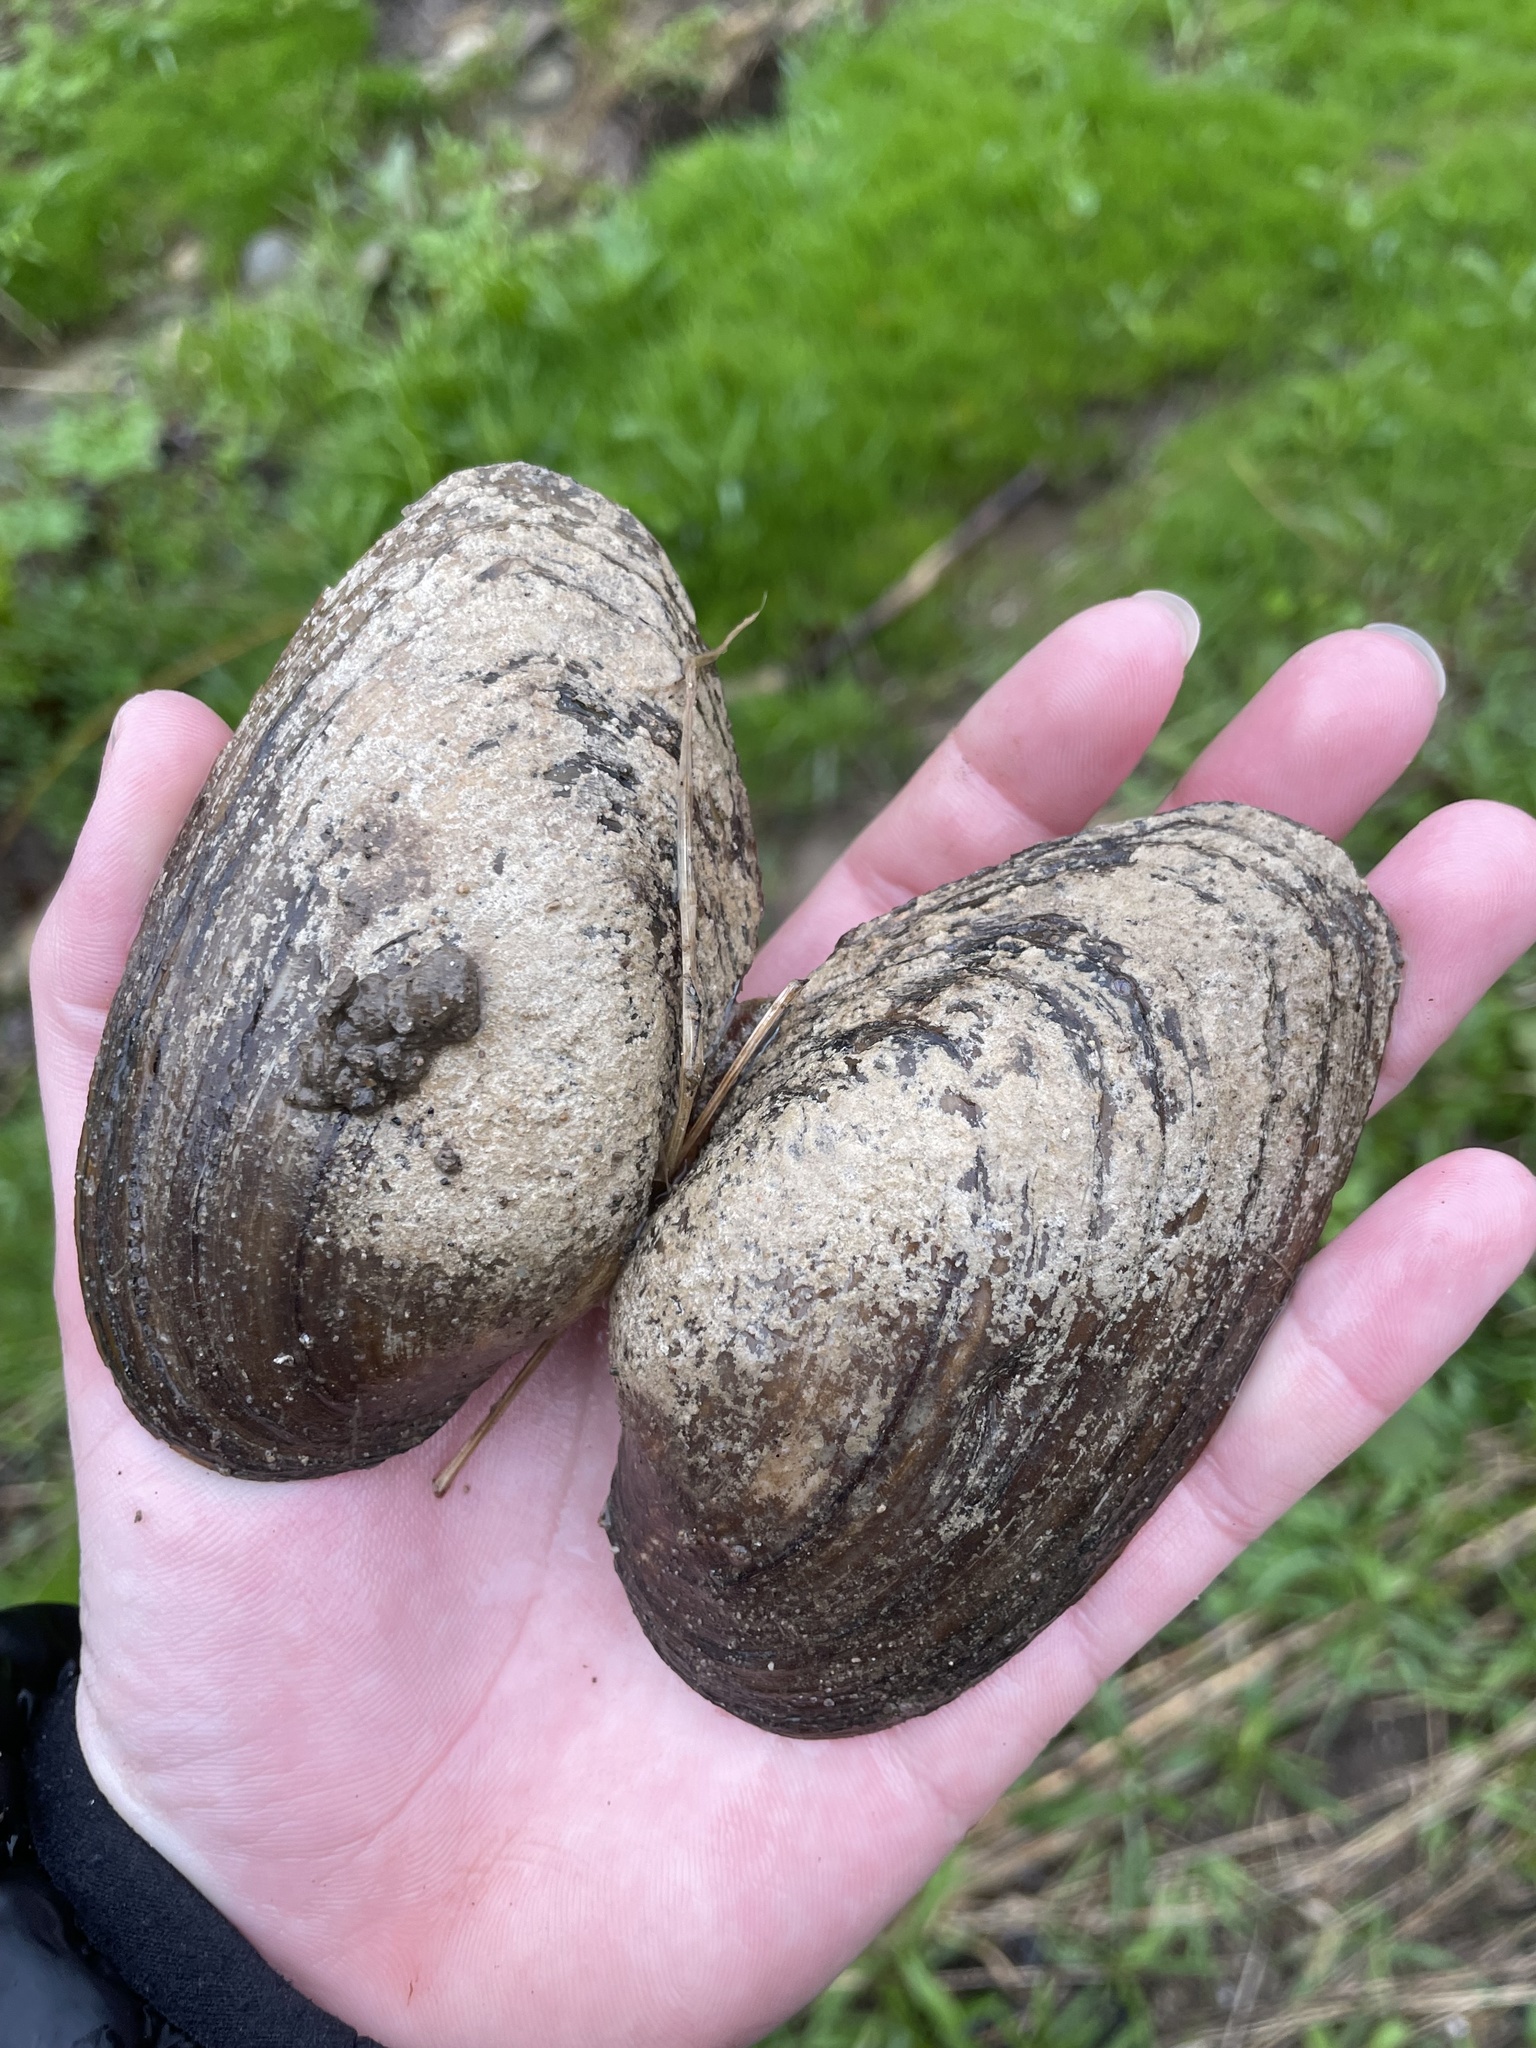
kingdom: Animalia
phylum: Mollusca
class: Bivalvia
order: Unionida
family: Unionidae
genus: Pyganodon
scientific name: Pyganodon grandis
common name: Giant floater
